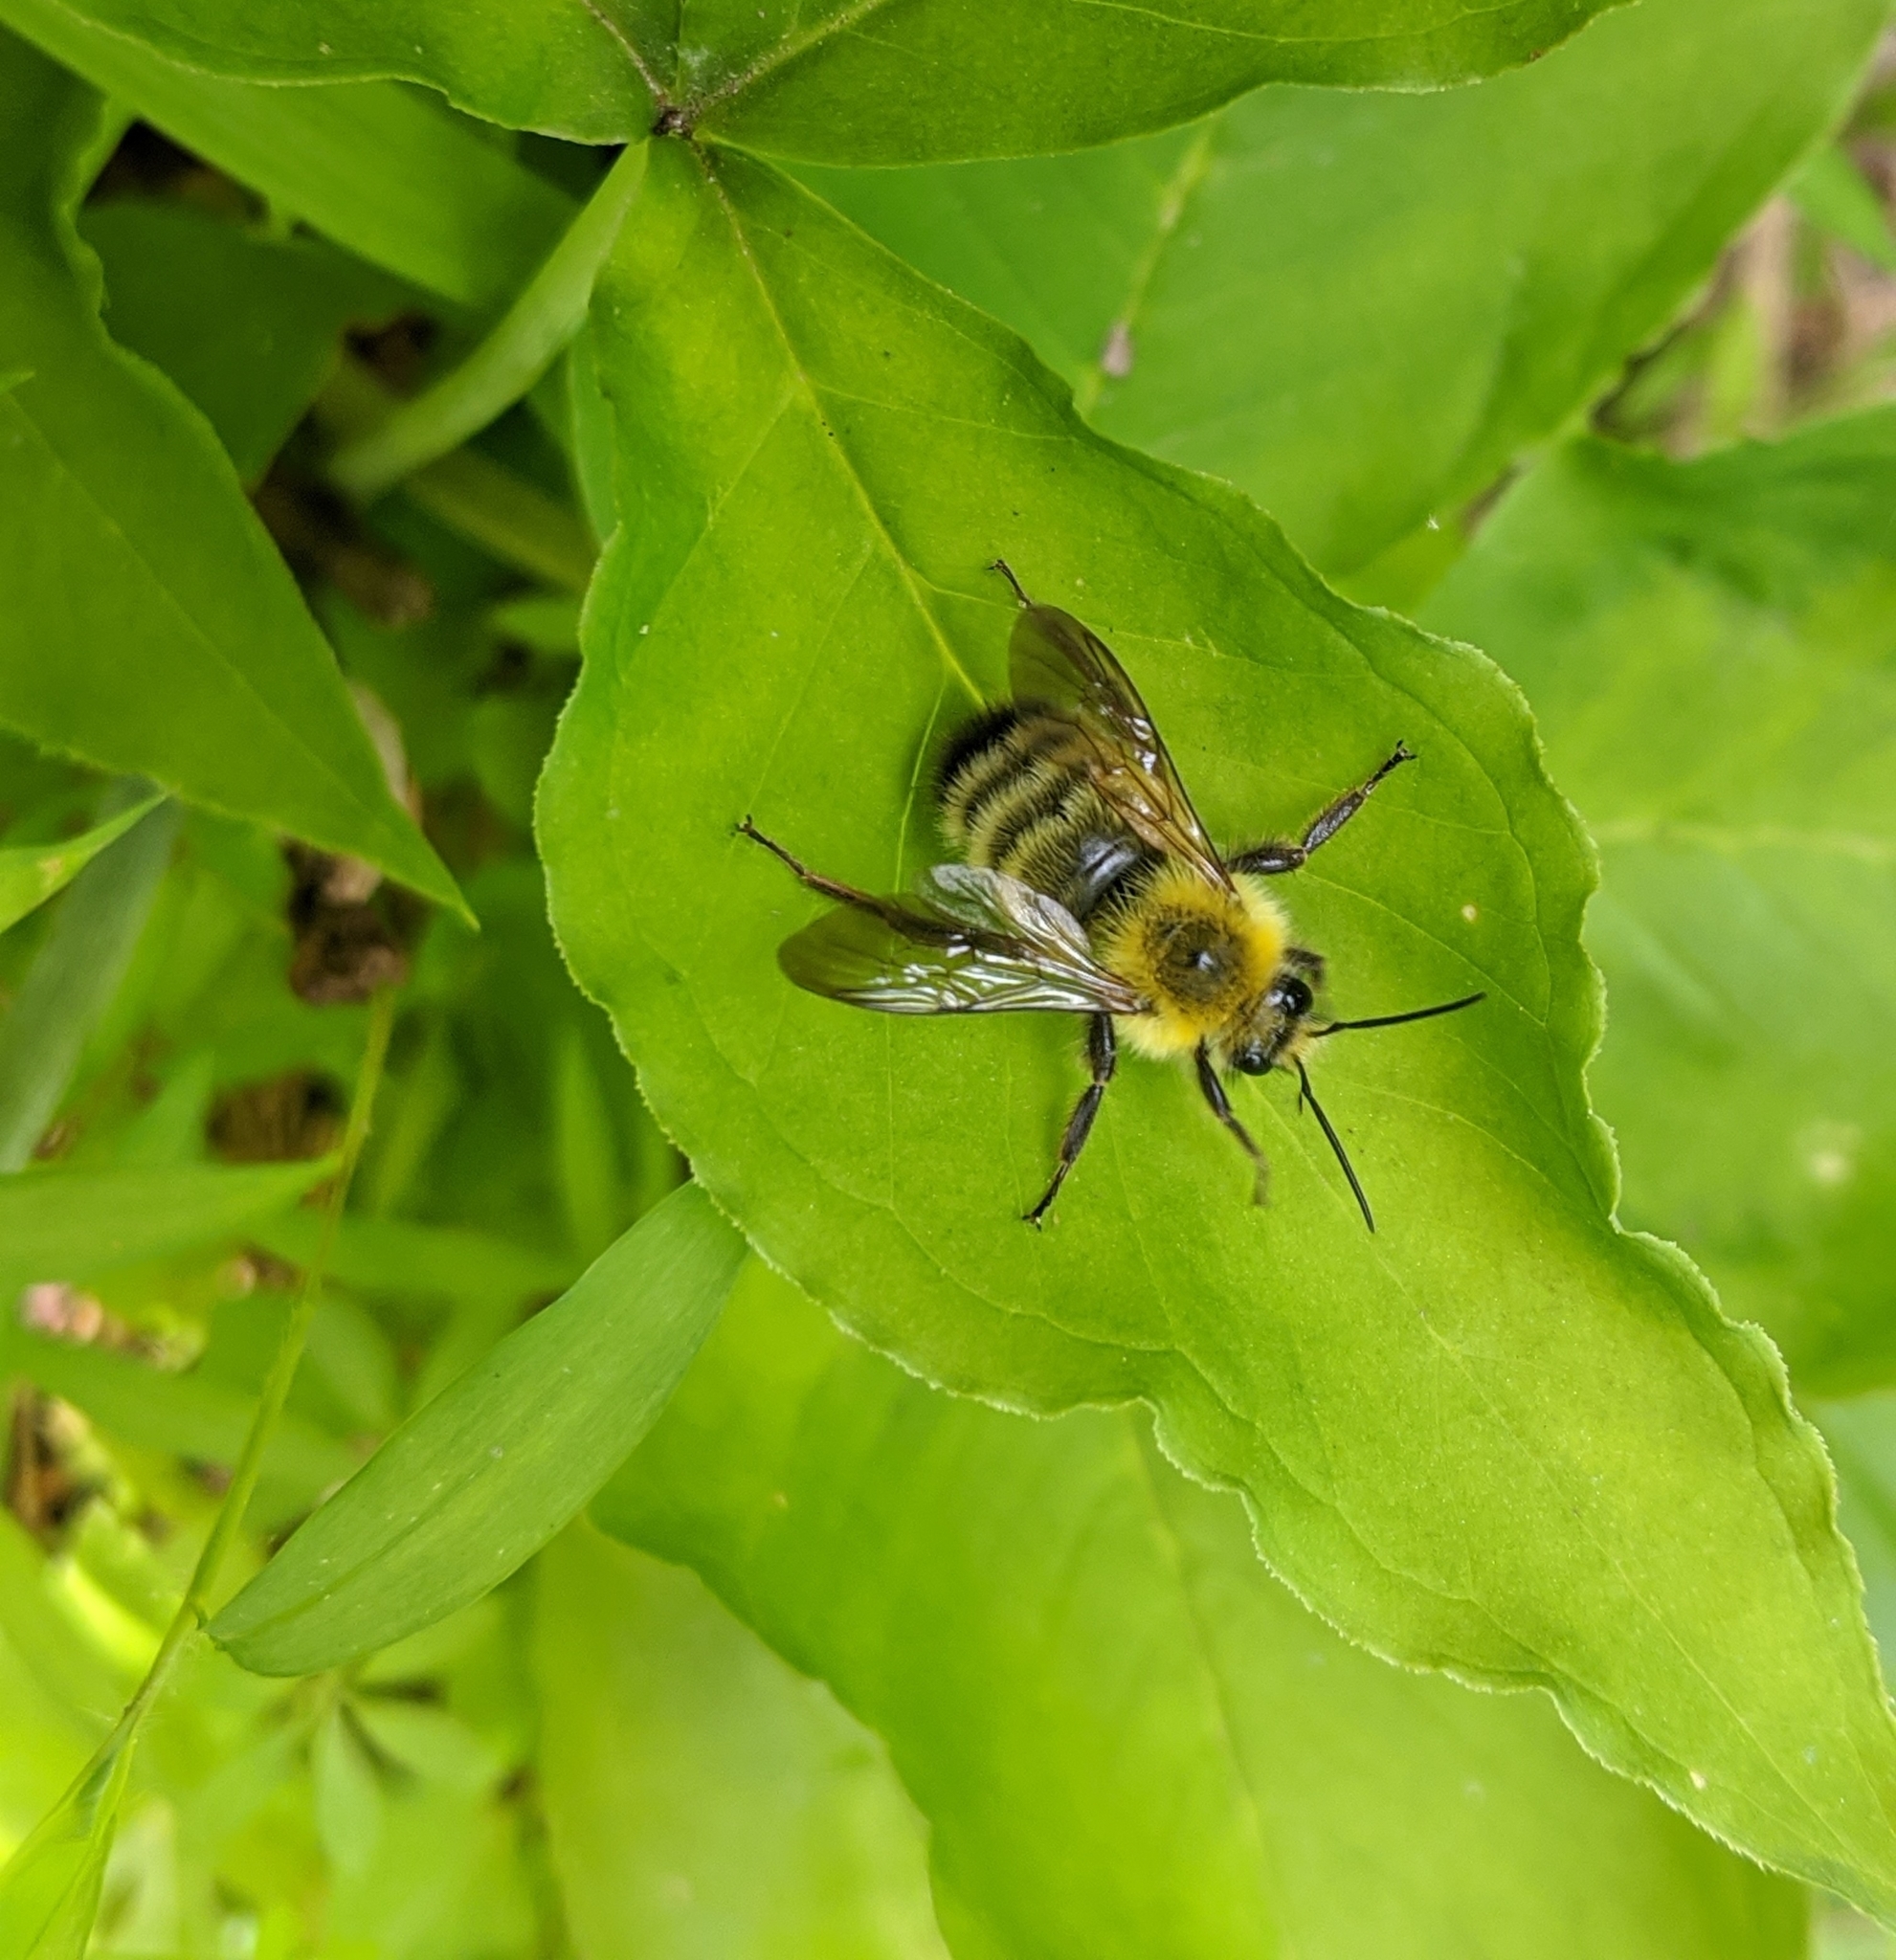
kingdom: Animalia
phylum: Arthropoda
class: Insecta
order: Hymenoptera
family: Apidae
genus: Bombus
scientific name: Bombus perplexus
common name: Confusing bumble bee
